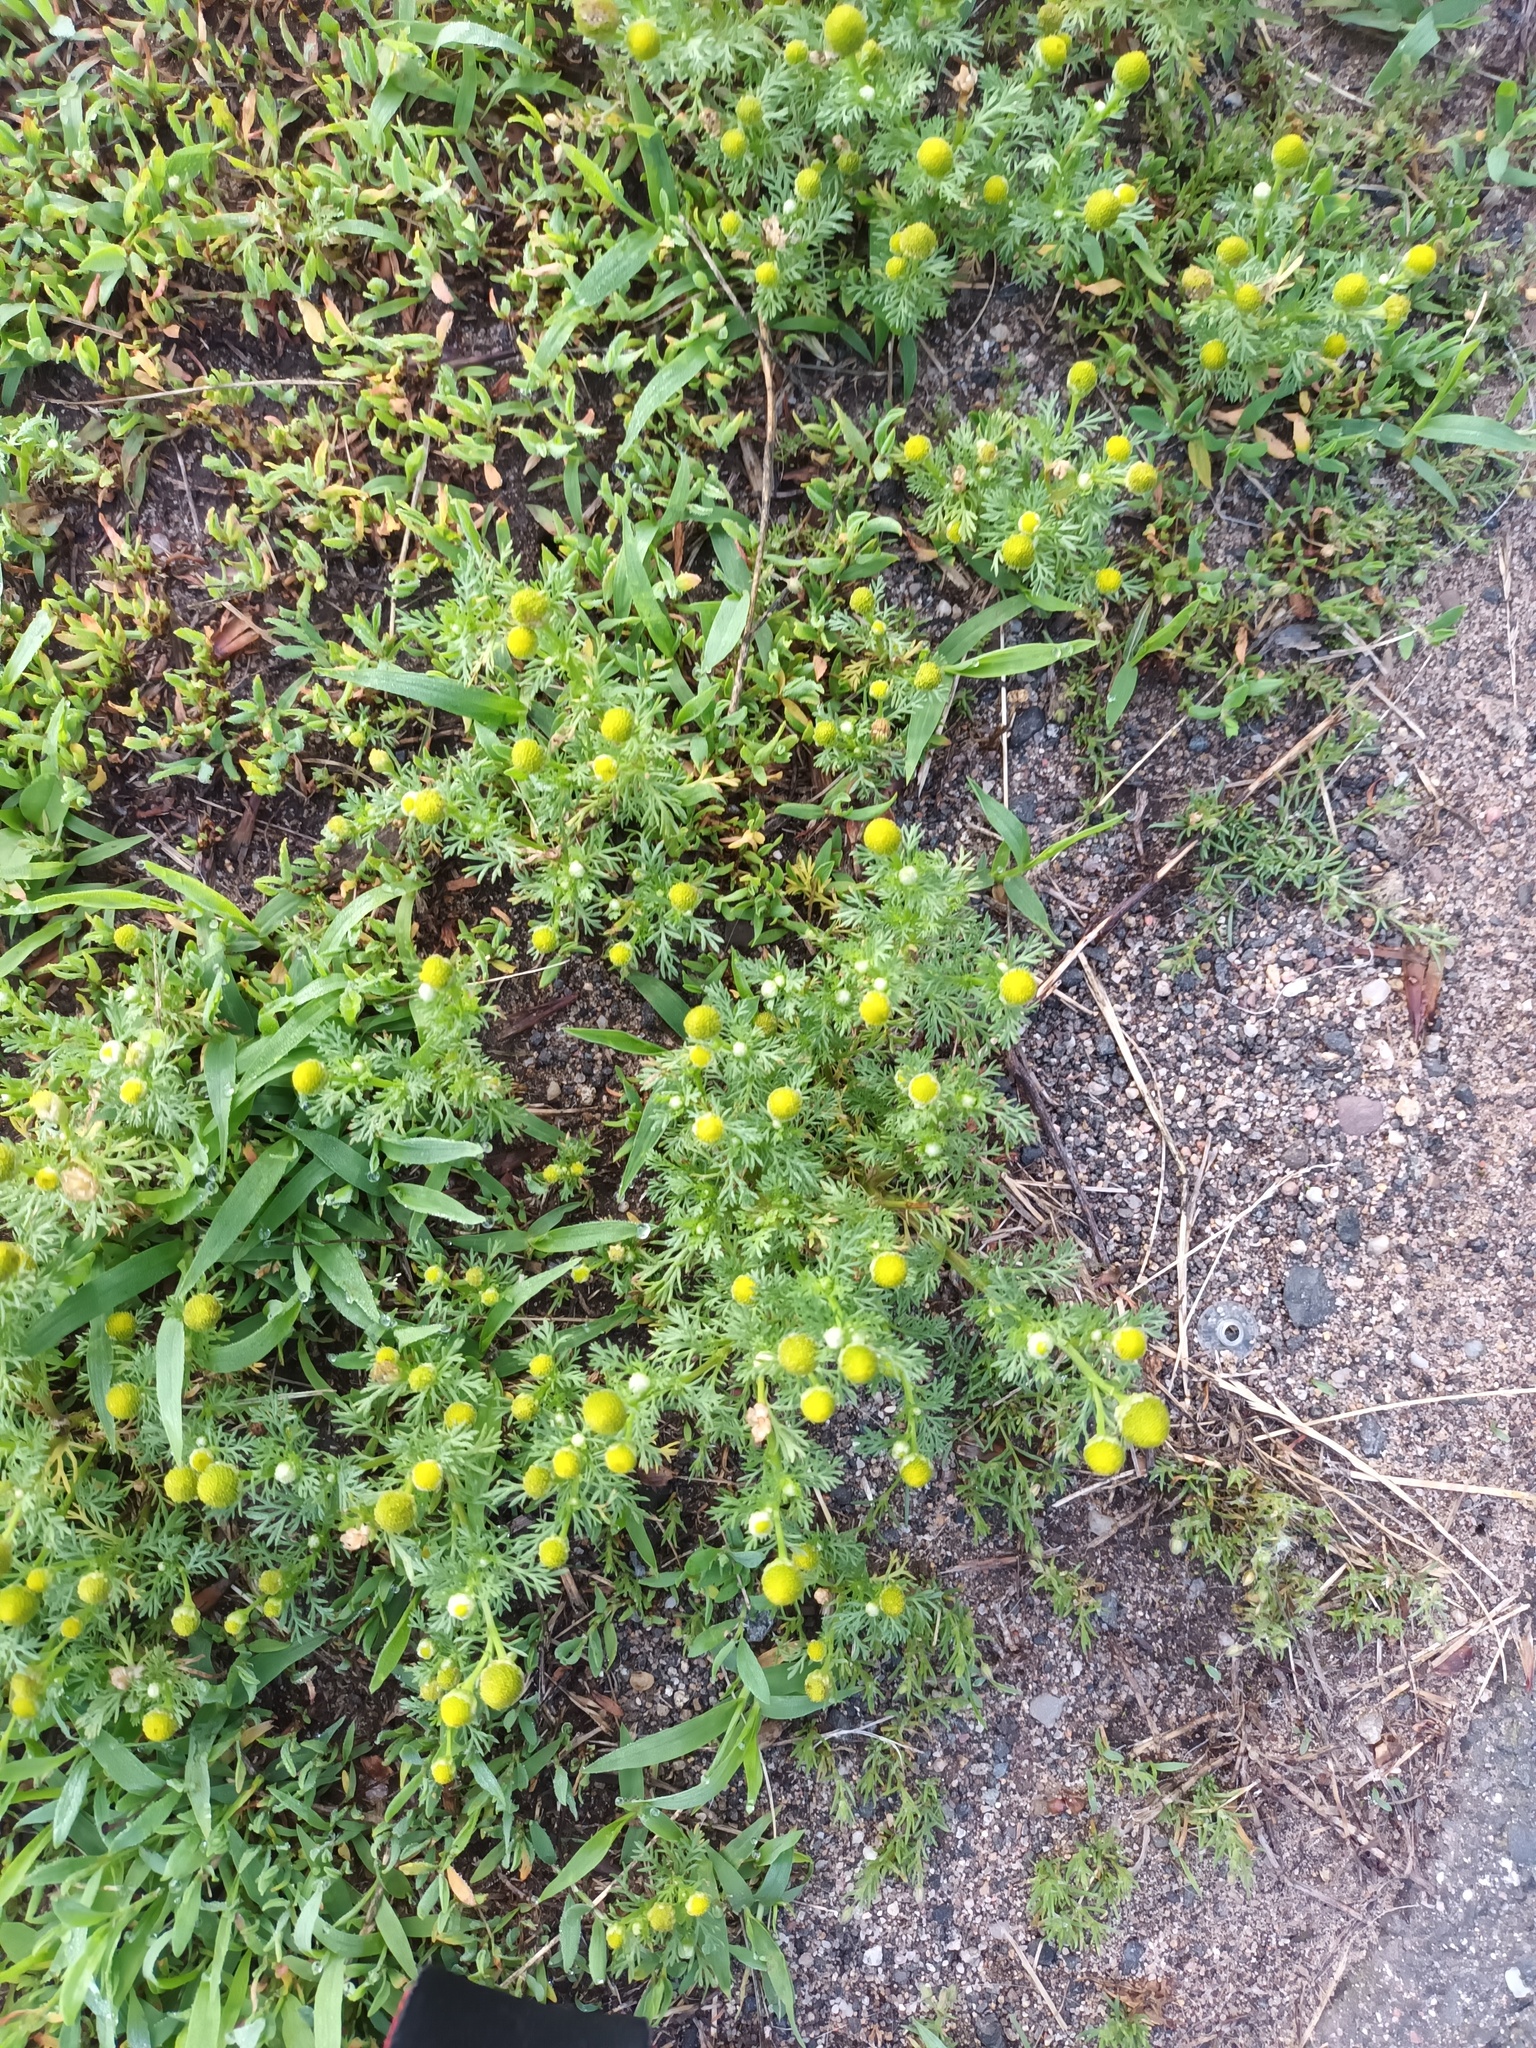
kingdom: Plantae
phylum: Tracheophyta
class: Magnoliopsida
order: Asterales
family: Asteraceae
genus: Matricaria
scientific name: Matricaria discoidea
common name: Disc mayweed
